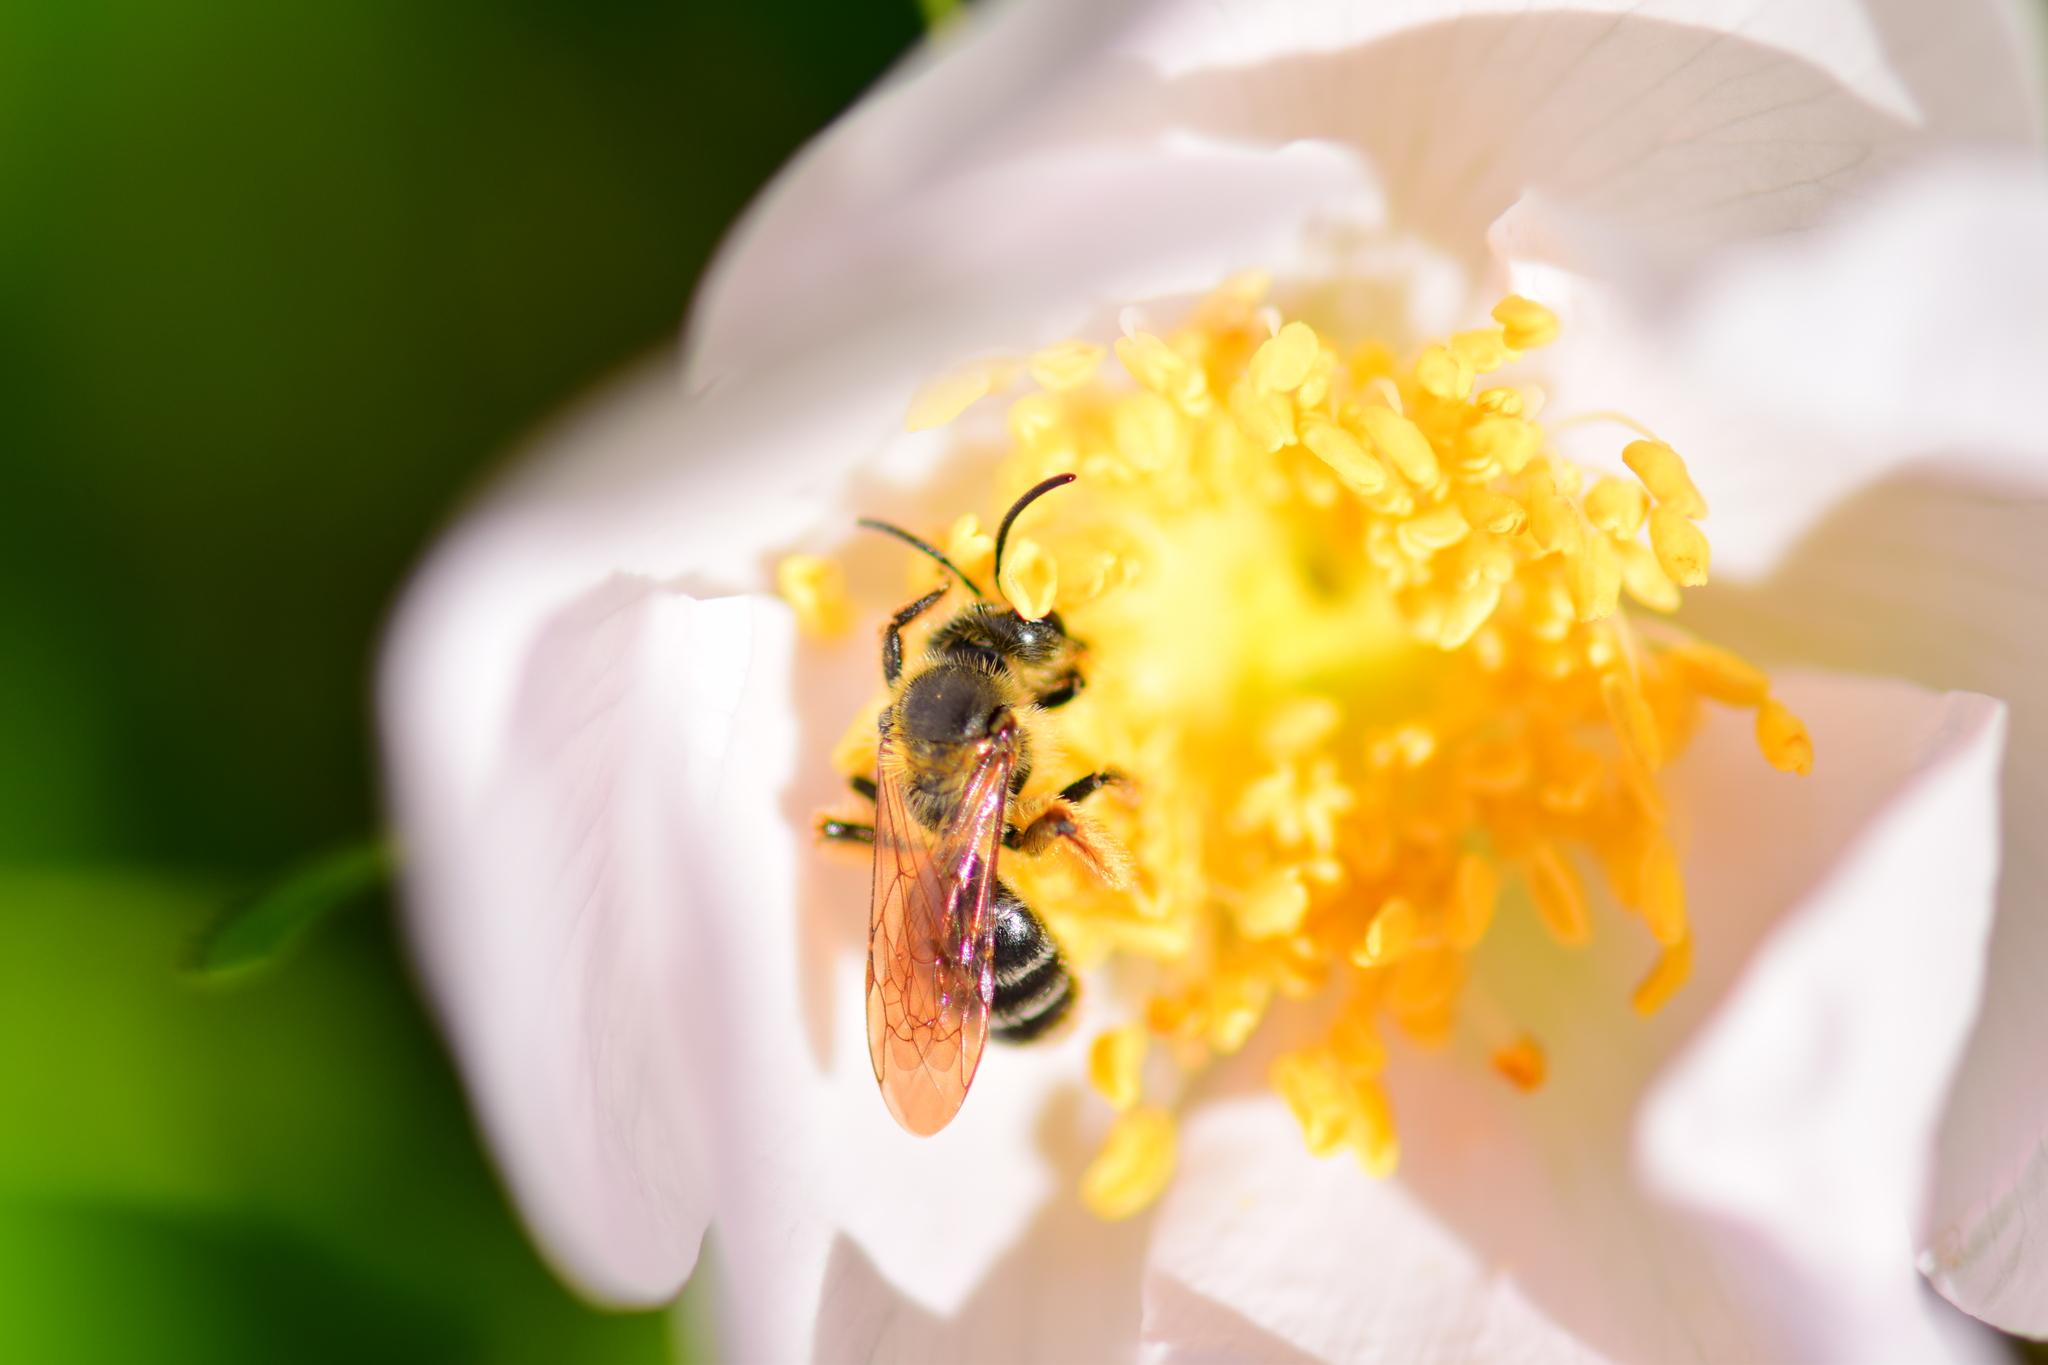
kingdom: Animalia
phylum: Arthropoda
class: Insecta
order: Hymenoptera
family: Andrenidae
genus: Andrena
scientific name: Andrena thaspii
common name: Parsnip miner bee
